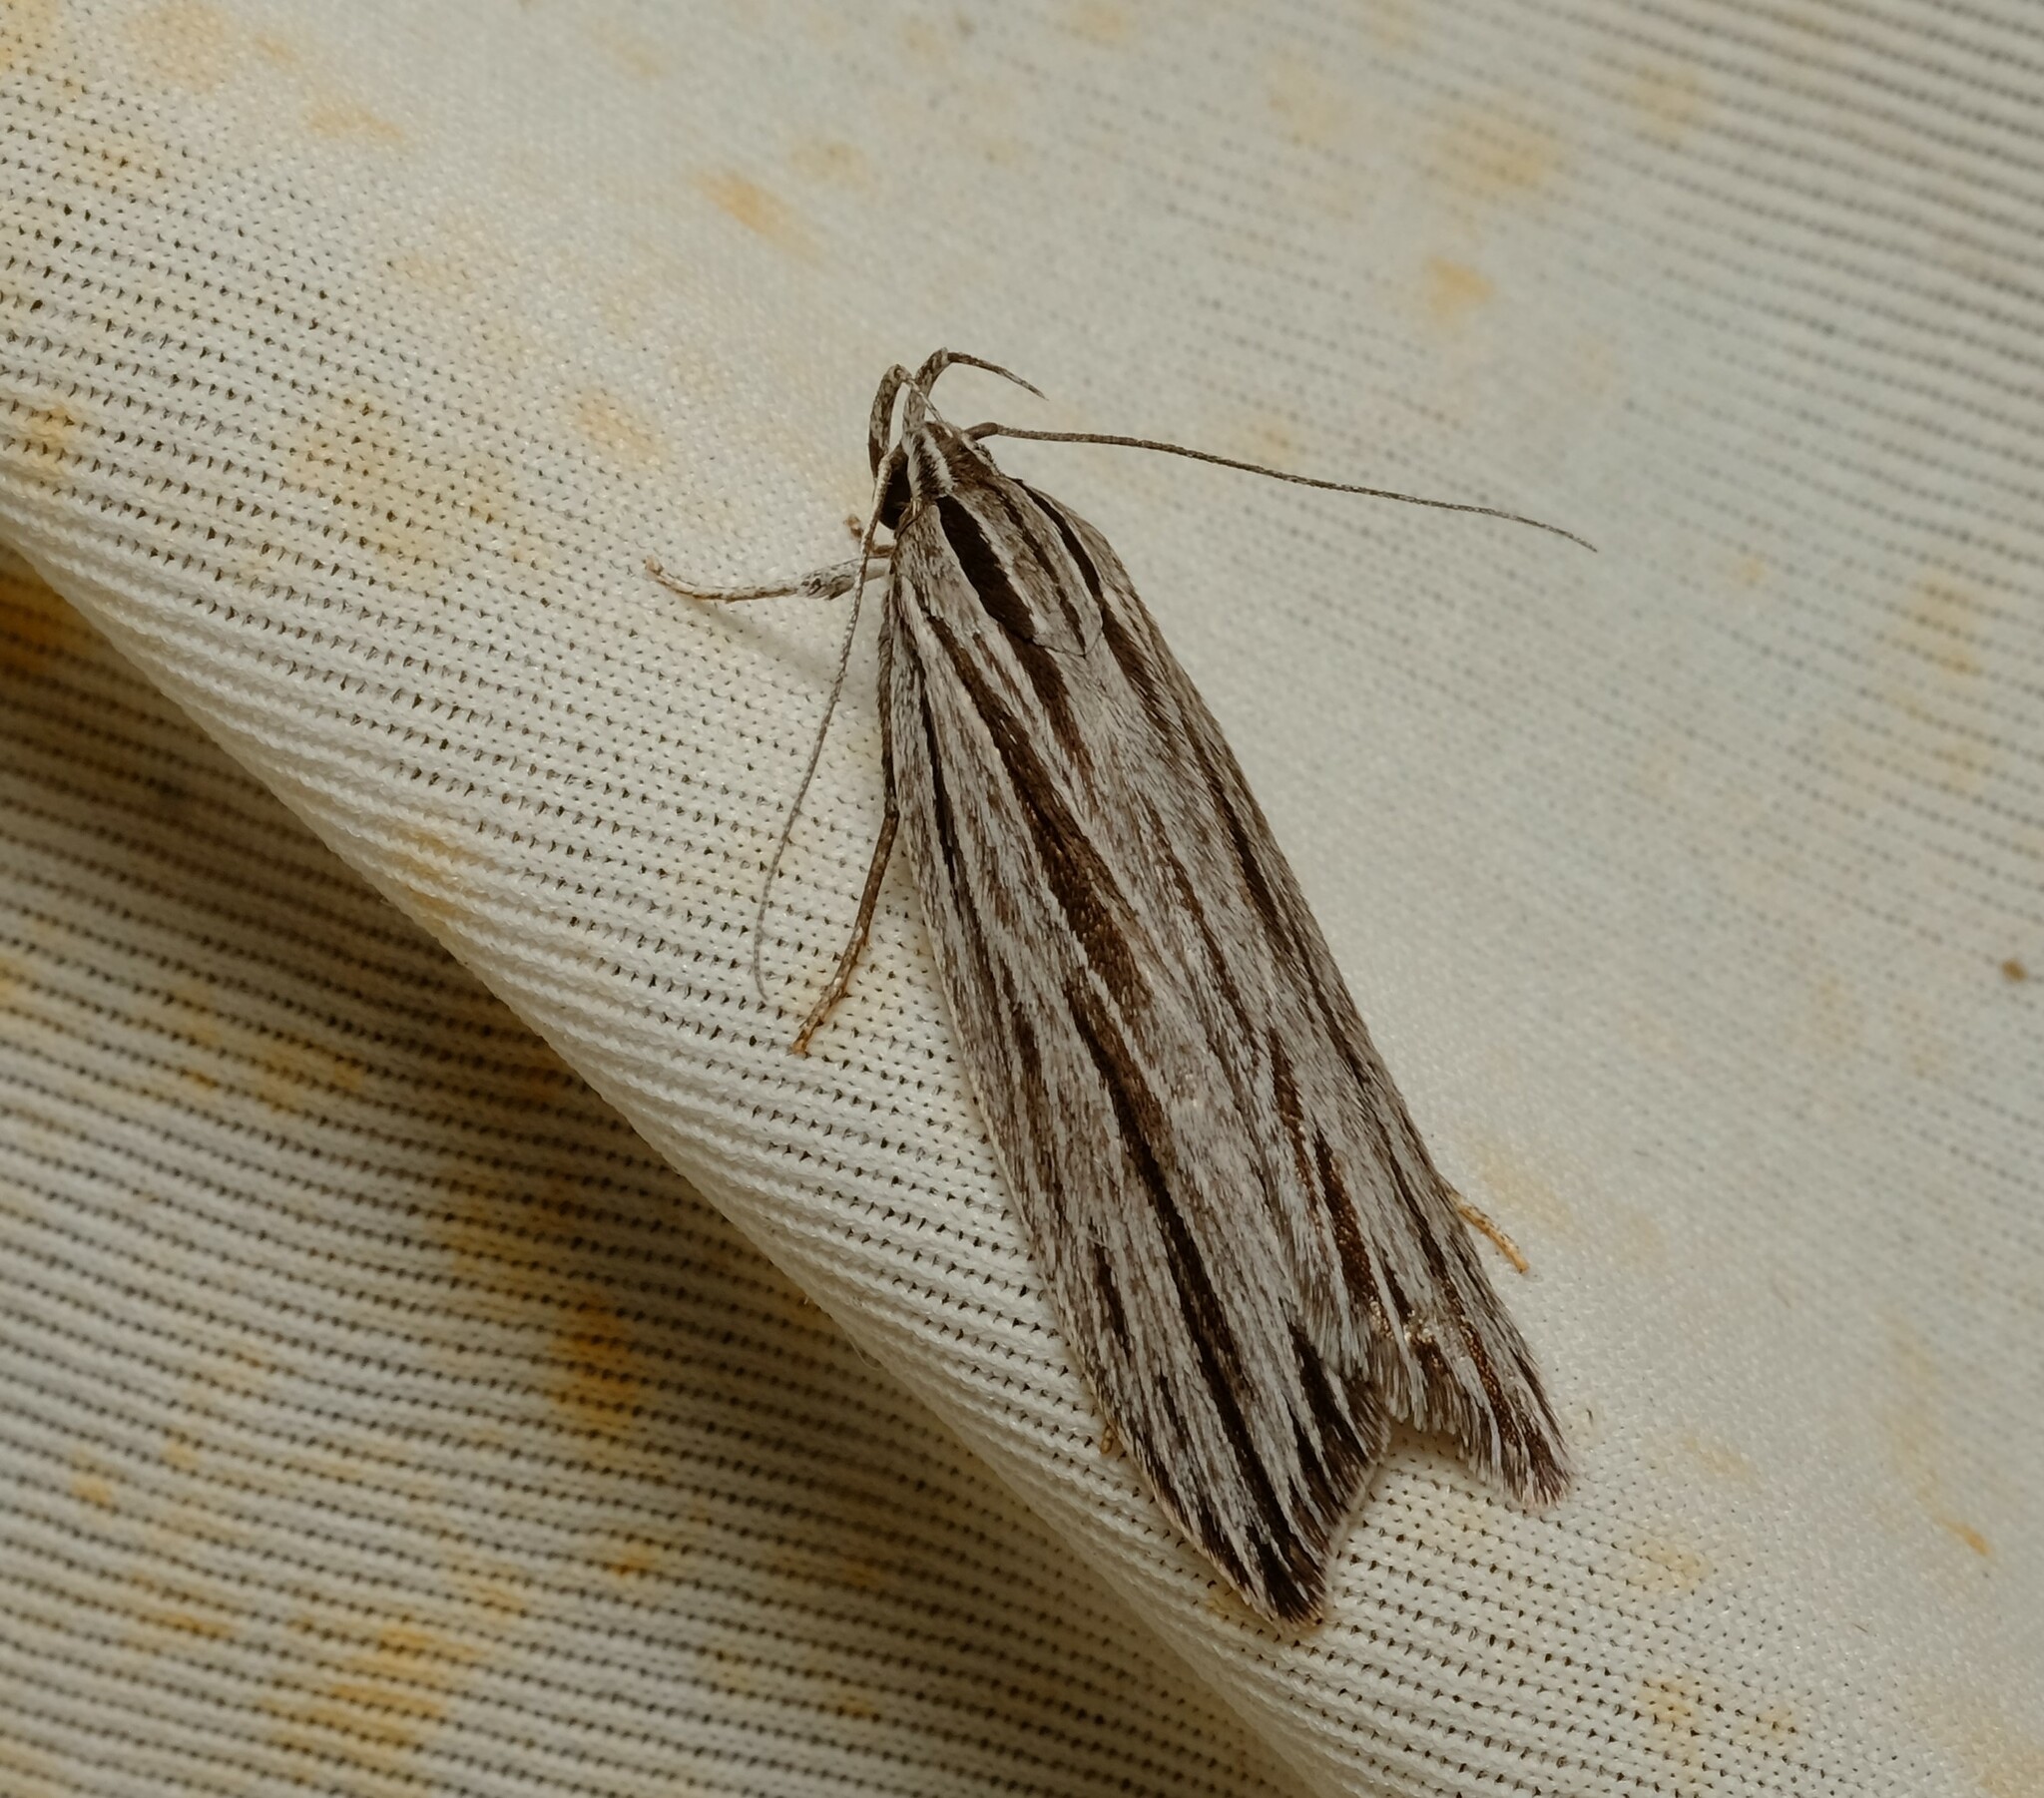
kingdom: Animalia
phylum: Arthropoda
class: Insecta
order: Lepidoptera
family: Xyloryctidae
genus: Leistarcha
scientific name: Leistarcha scitissimella
